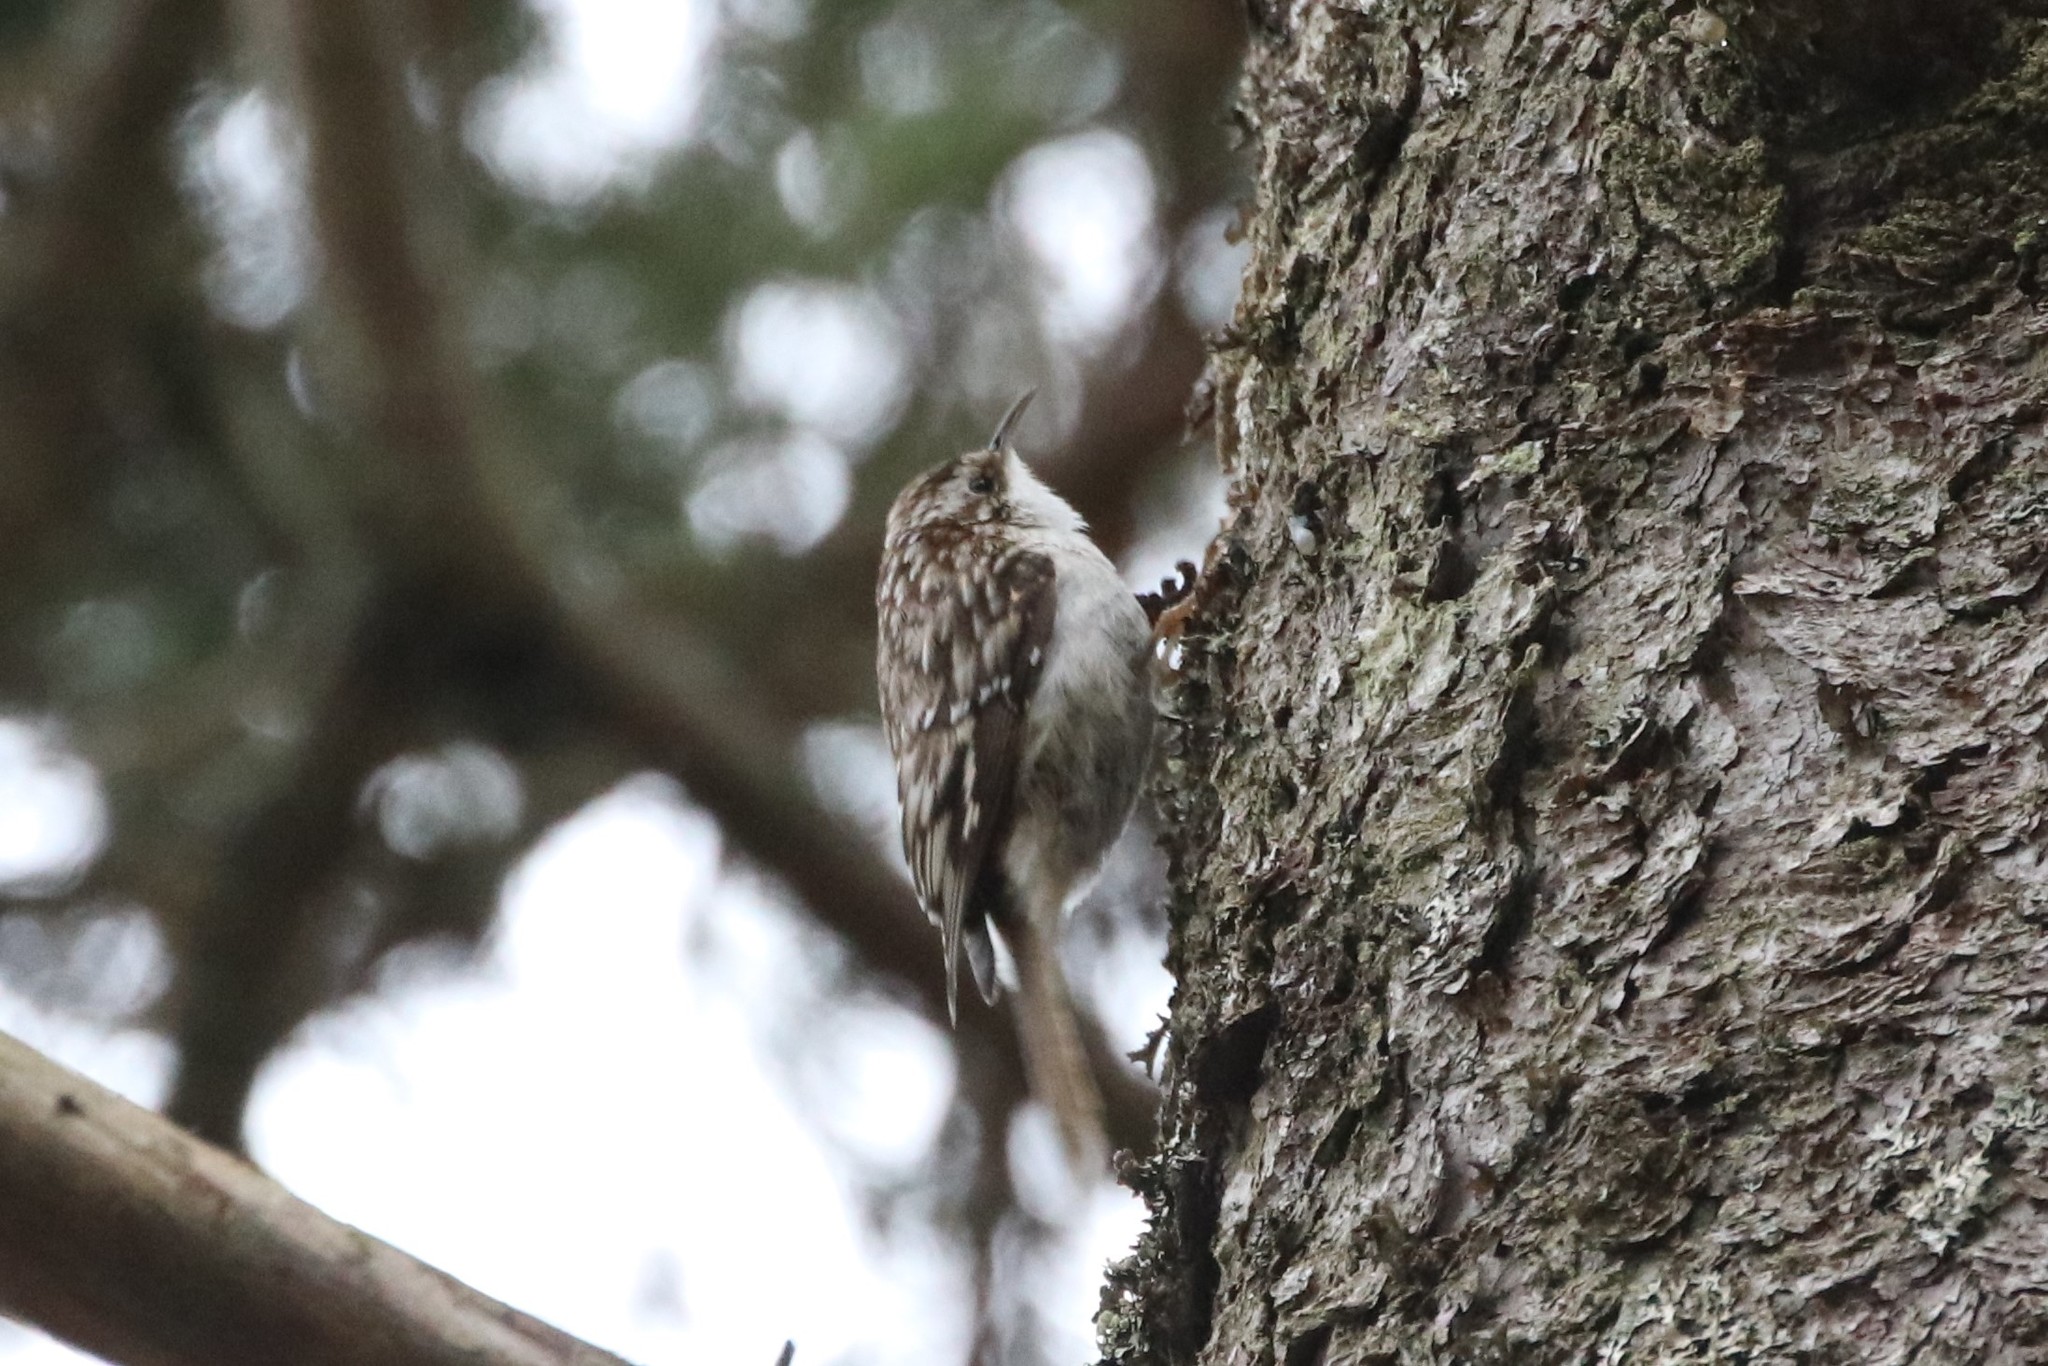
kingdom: Animalia
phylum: Chordata
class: Aves
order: Passeriformes
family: Certhiidae
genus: Certhia
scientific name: Certhia americana
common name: Brown creeper
